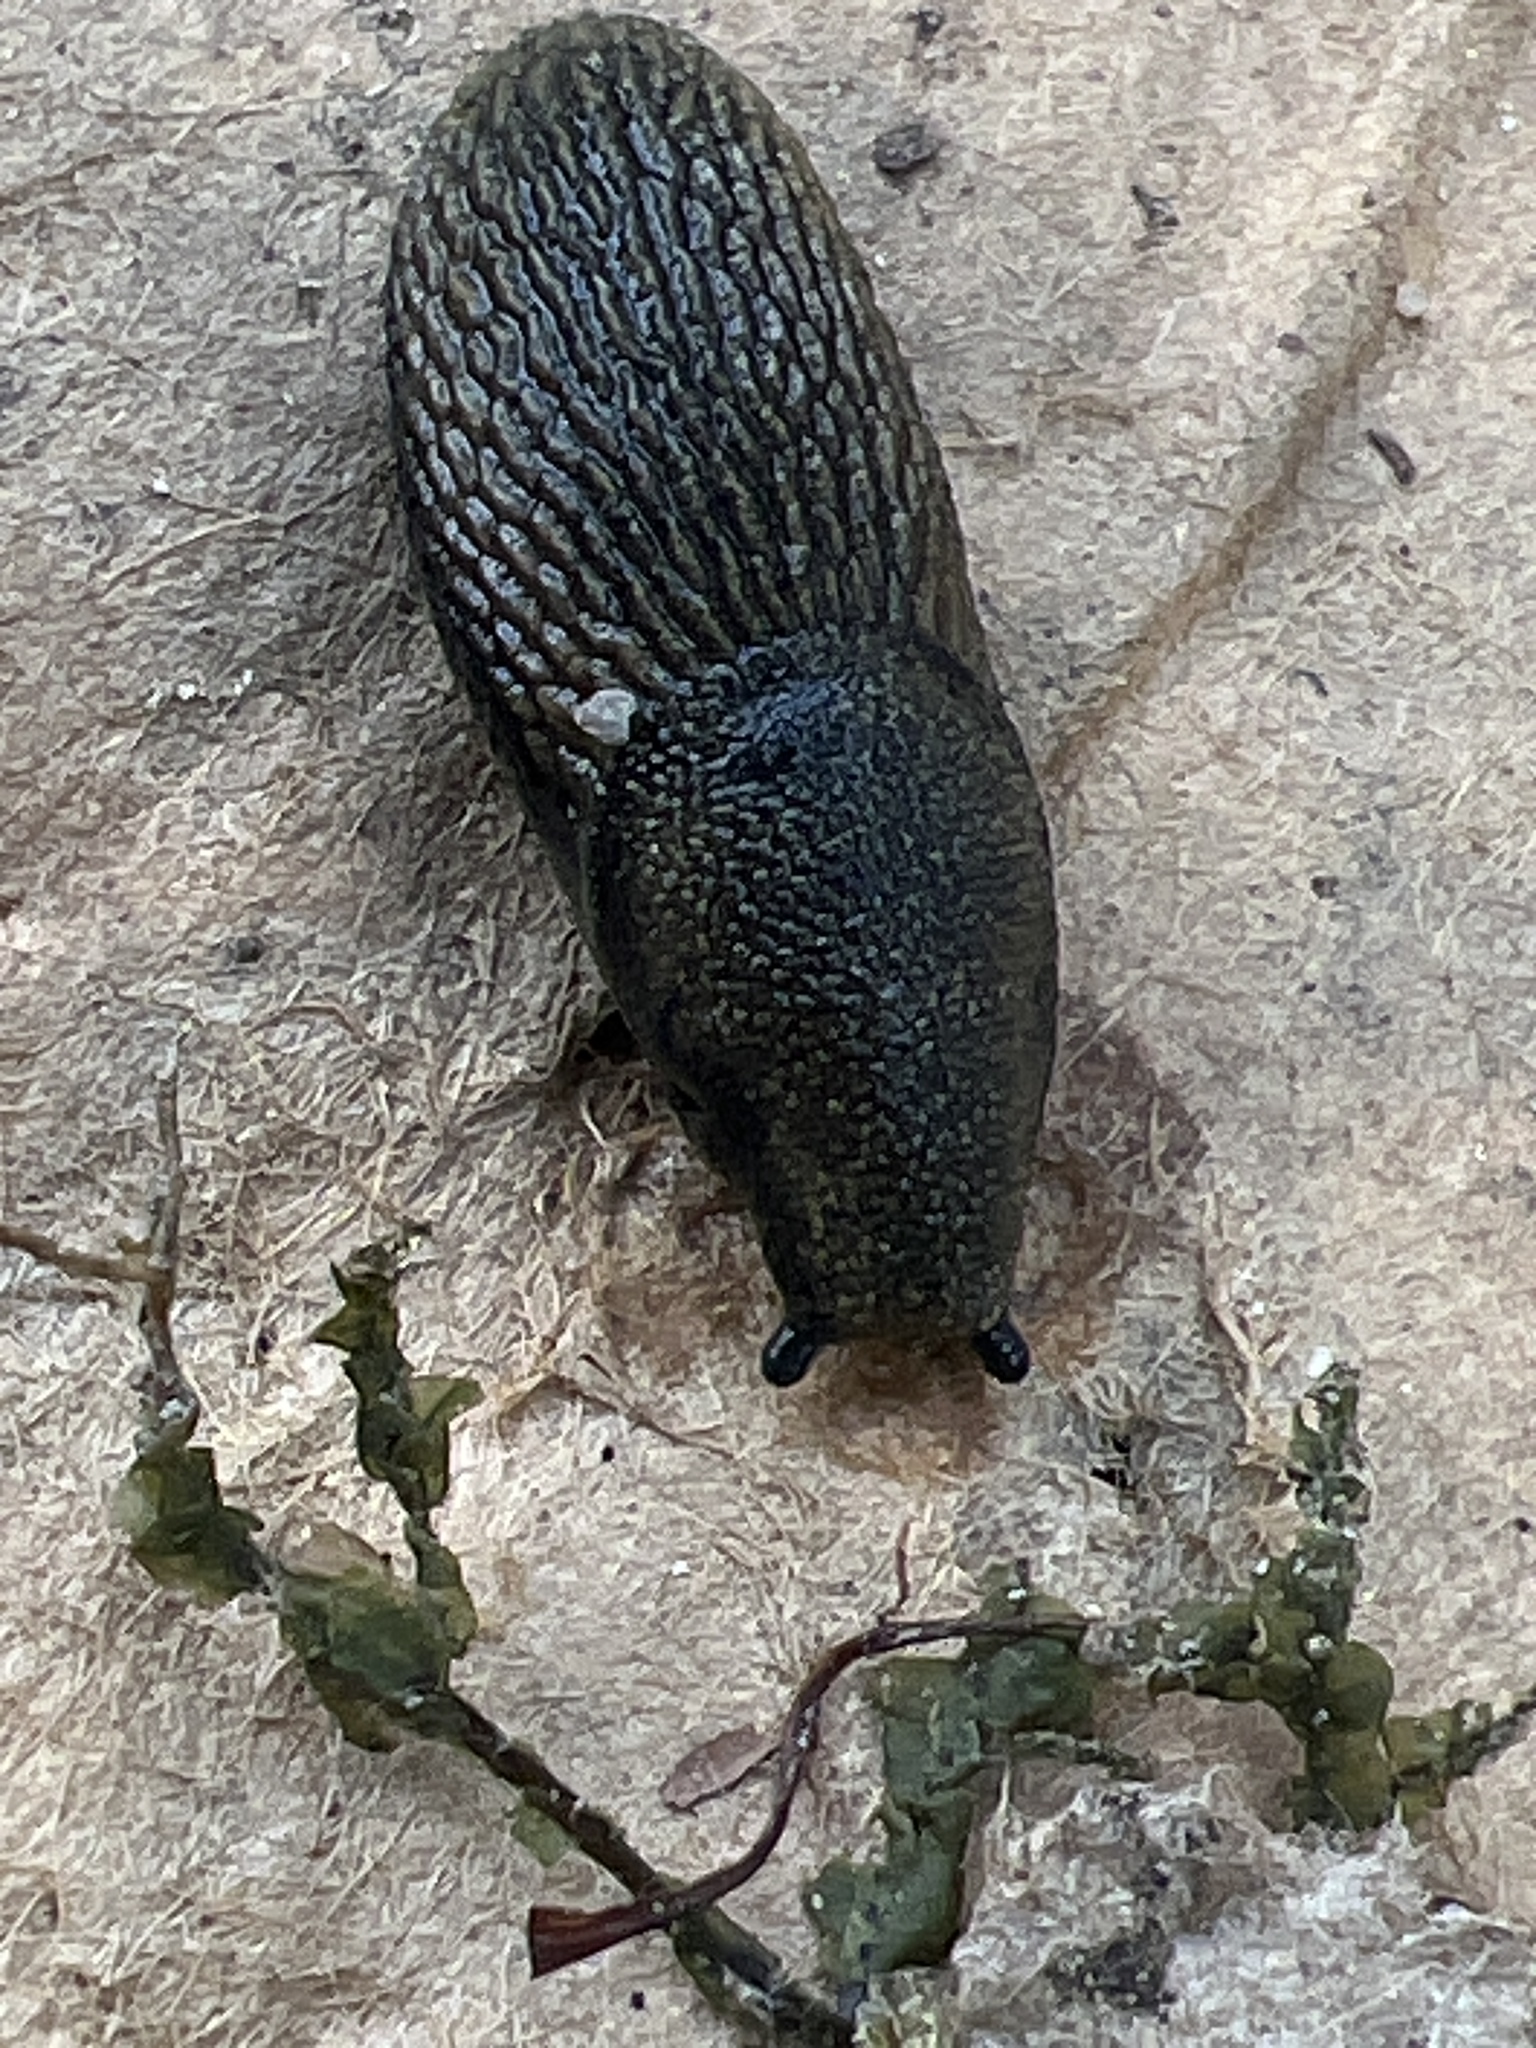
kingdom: Animalia
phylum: Mollusca
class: Gastropoda
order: Stylommatophora
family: Arionidae
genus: Arion
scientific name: Arion
